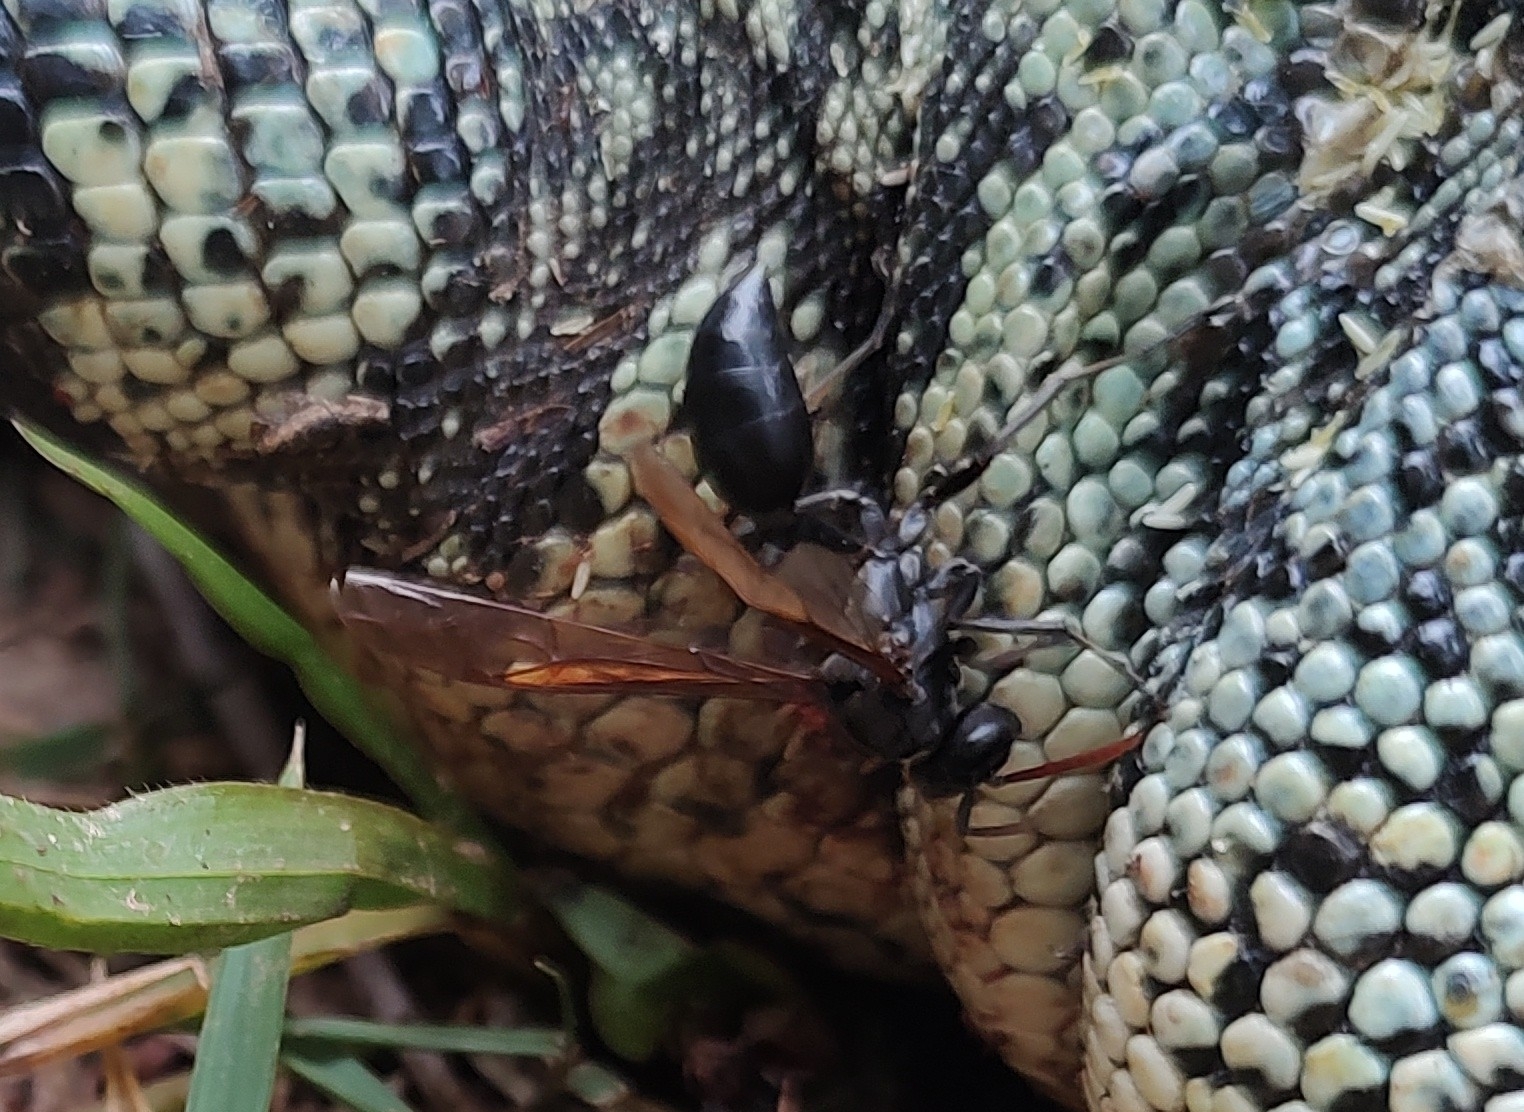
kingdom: Animalia
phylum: Arthropoda
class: Insecta
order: Hymenoptera
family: Vespidae
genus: Agelaia
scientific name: Agelaia angulata
